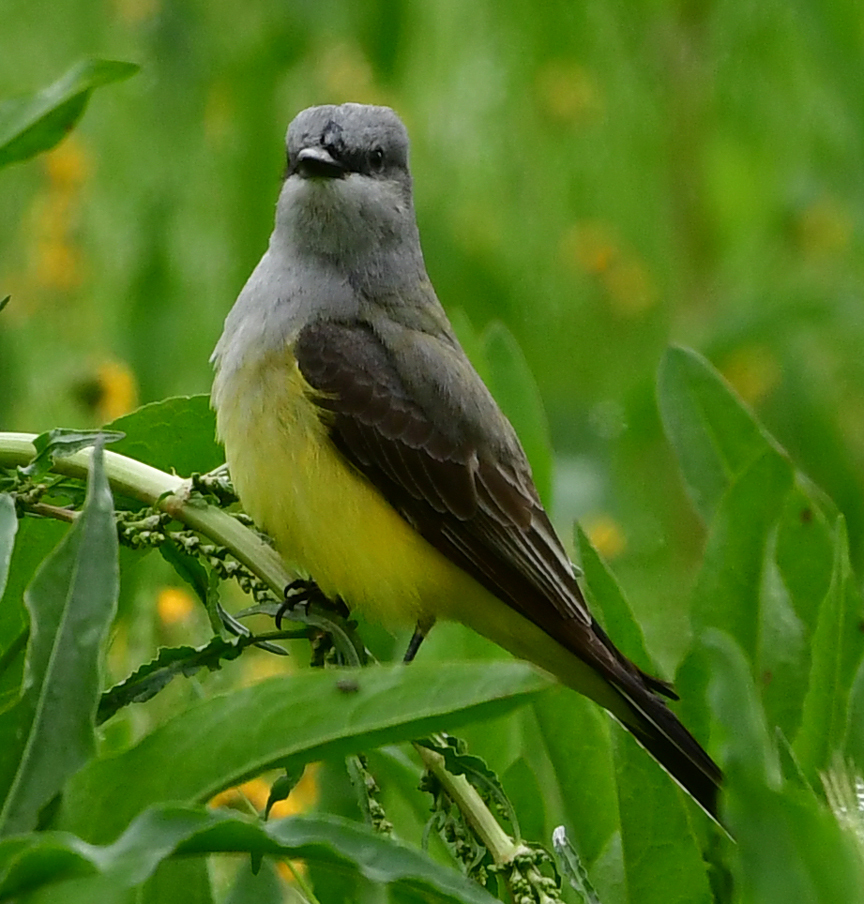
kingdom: Animalia
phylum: Chordata
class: Aves
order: Passeriformes
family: Tyrannidae
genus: Tyrannus
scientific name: Tyrannus vociferans
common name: Cassin's kingbird
